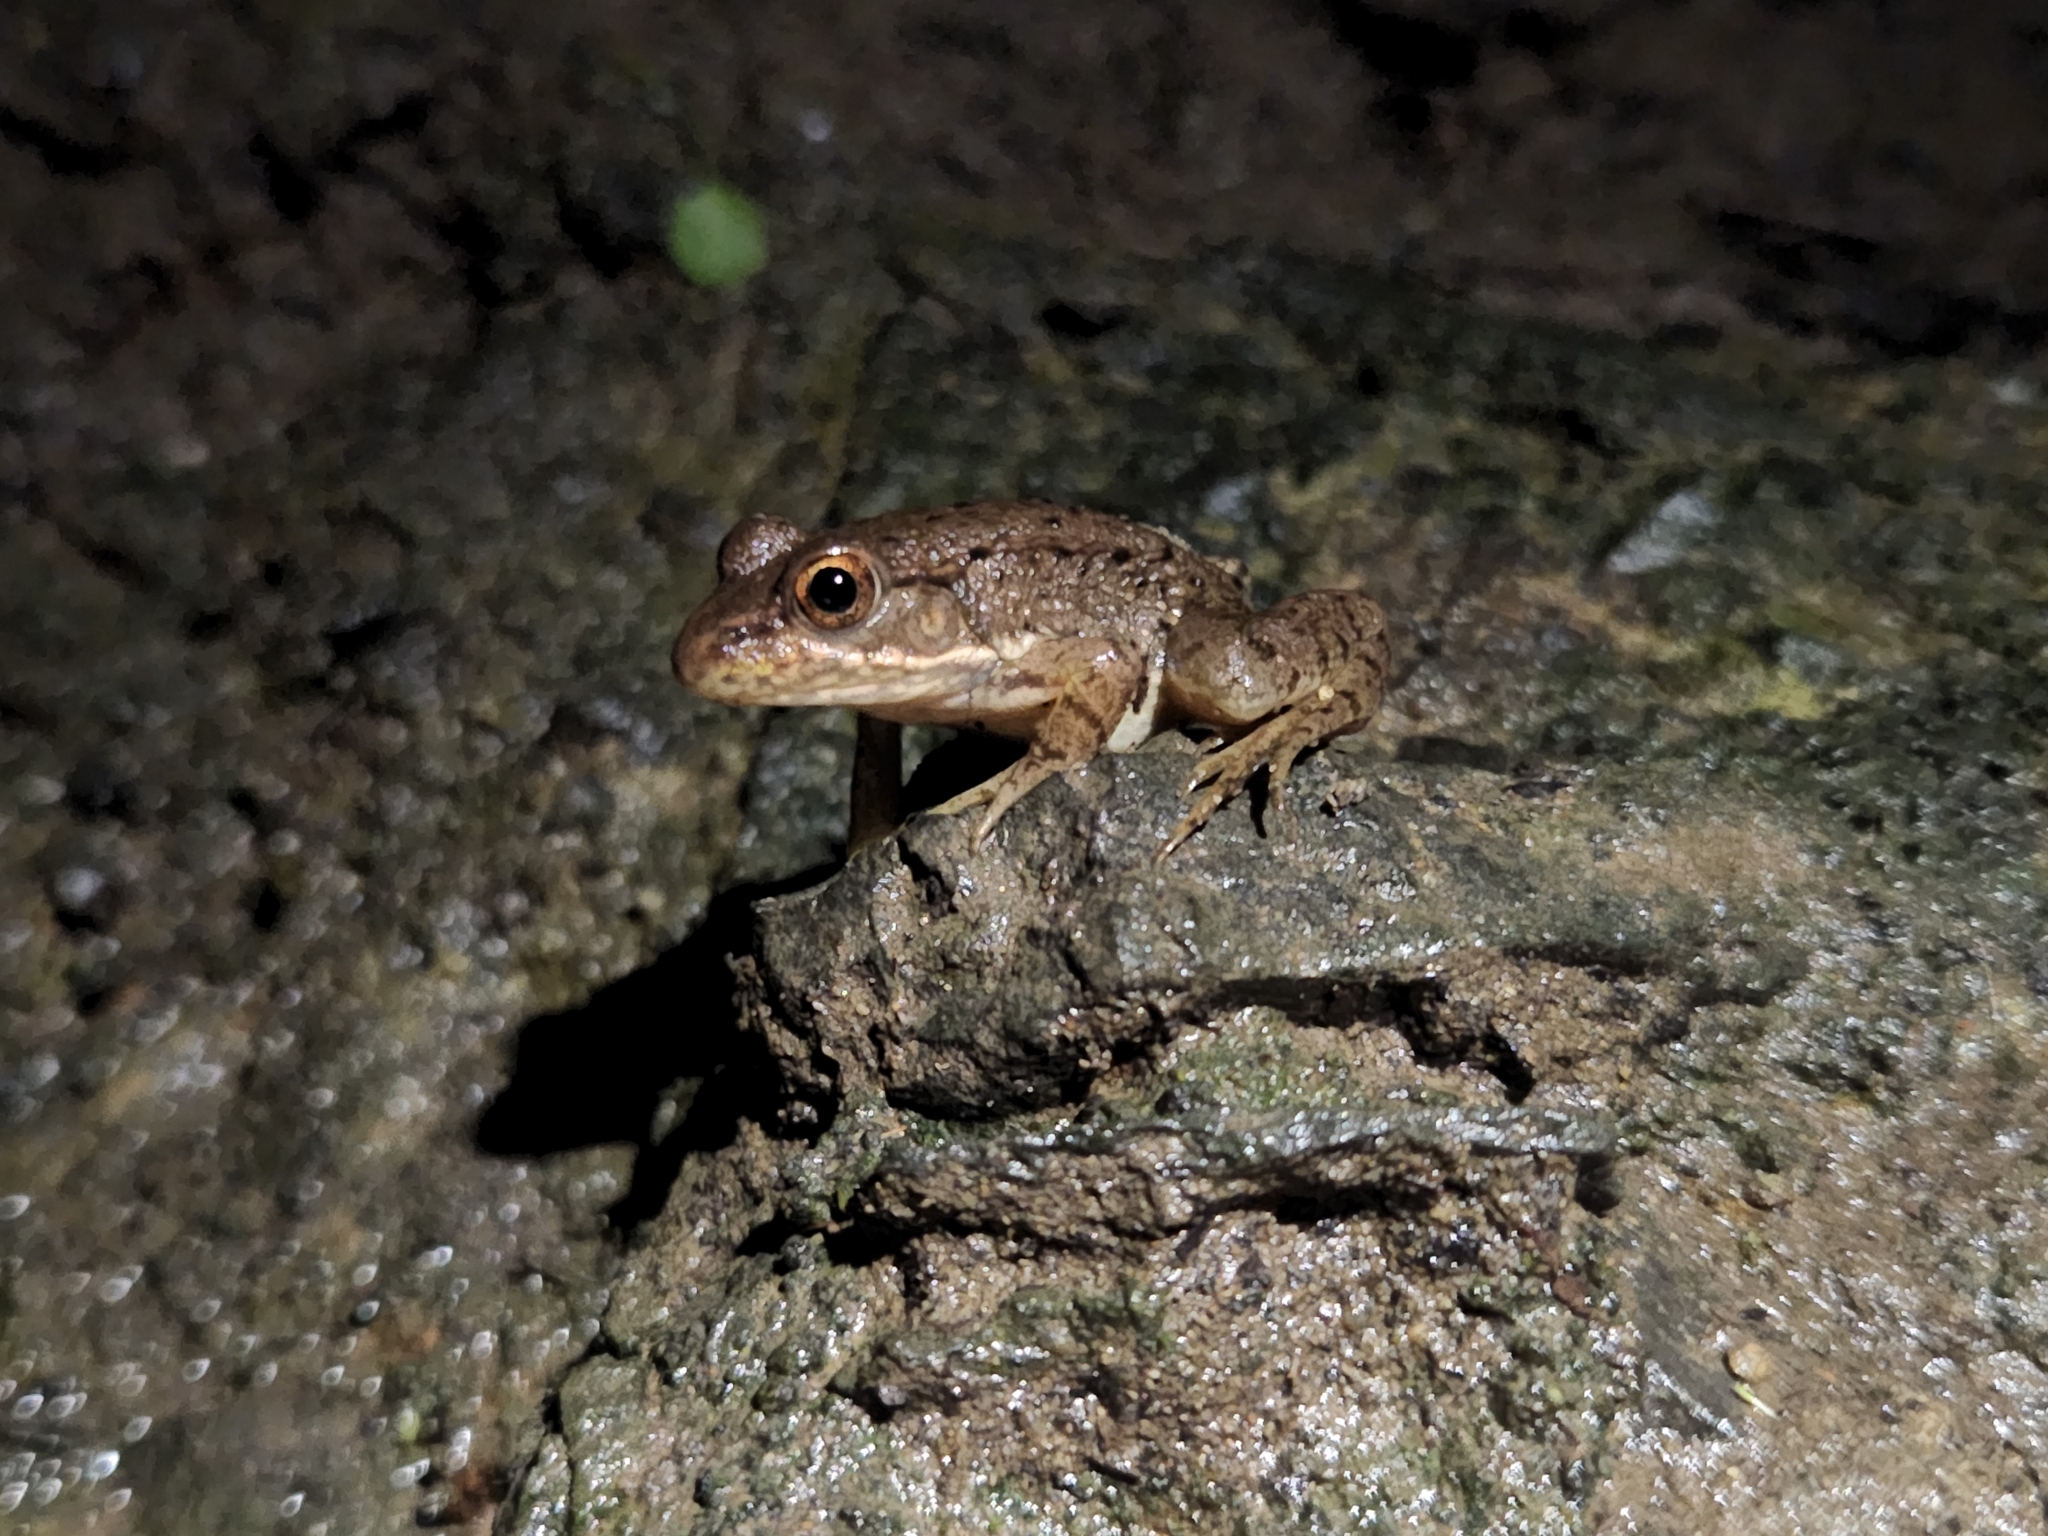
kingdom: Animalia
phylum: Chordata
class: Amphibia
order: Anura
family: Ranidae
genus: Lithobates
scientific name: Lithobates clamitans
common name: Green frog
